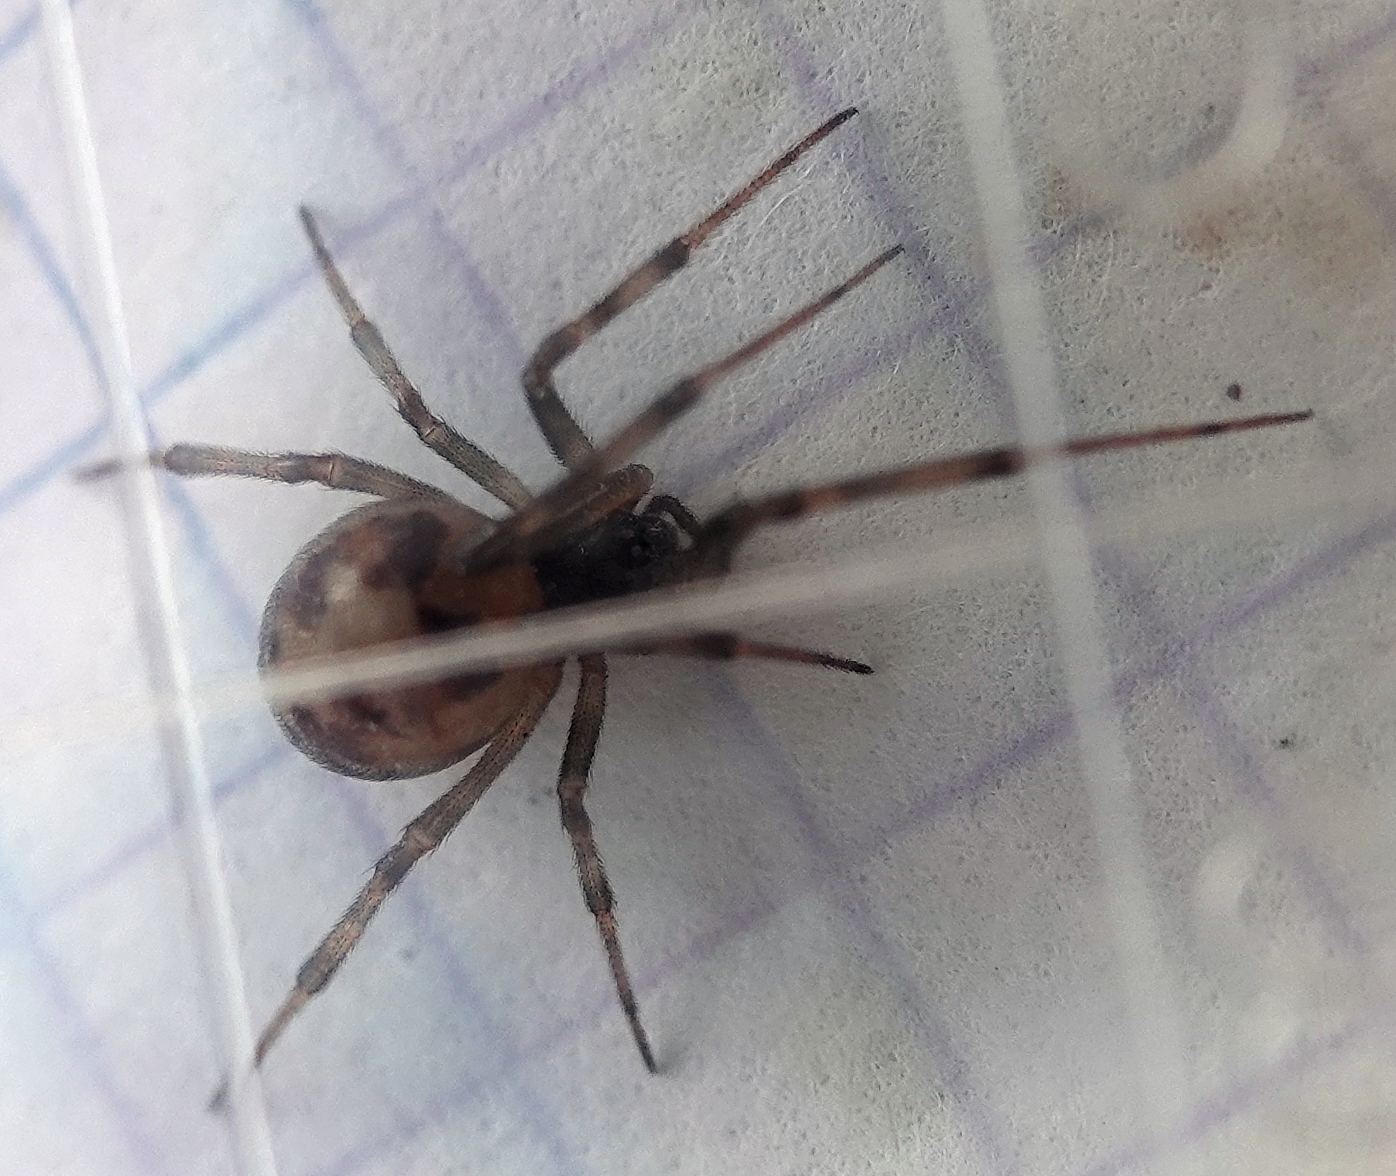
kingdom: Animalia
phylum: Arthropoda
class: Arachnida
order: Araneae
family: Theridiidae
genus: Steatoda
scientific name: Steatoda triangulosa
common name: Triangulate bud spider
